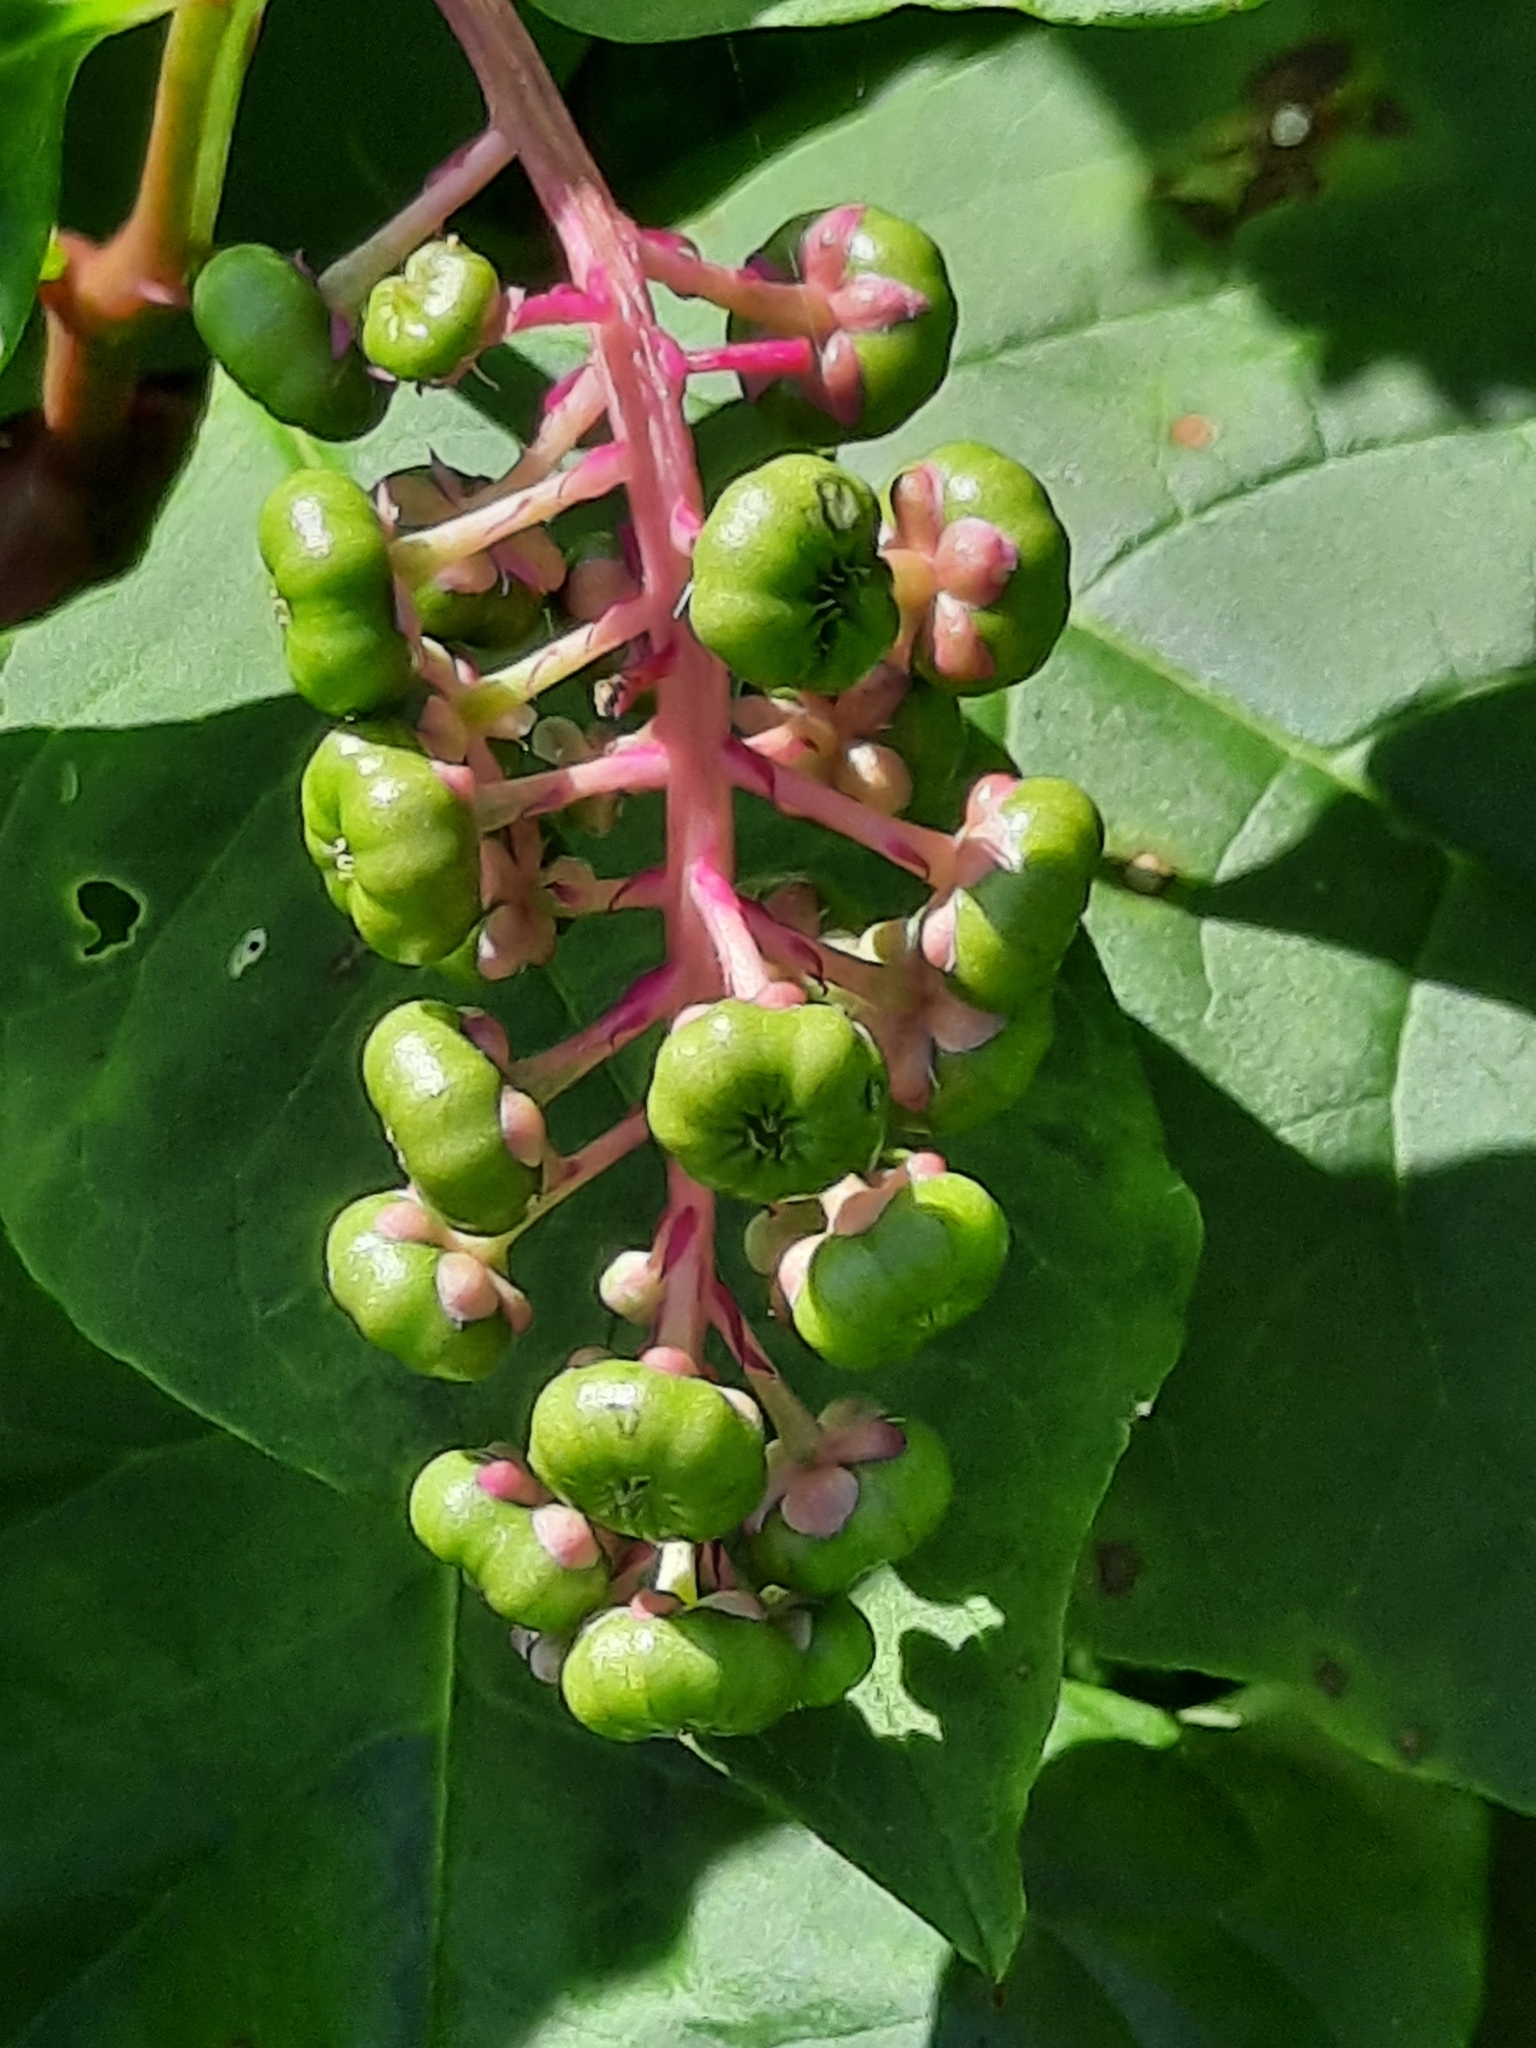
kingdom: Plantae
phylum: Tracheophyta
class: Magnoliopsida
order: Caryophyllales
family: Phytolaccaceae
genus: Phytolacca
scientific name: Phytolacca americana
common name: American pokeweed
